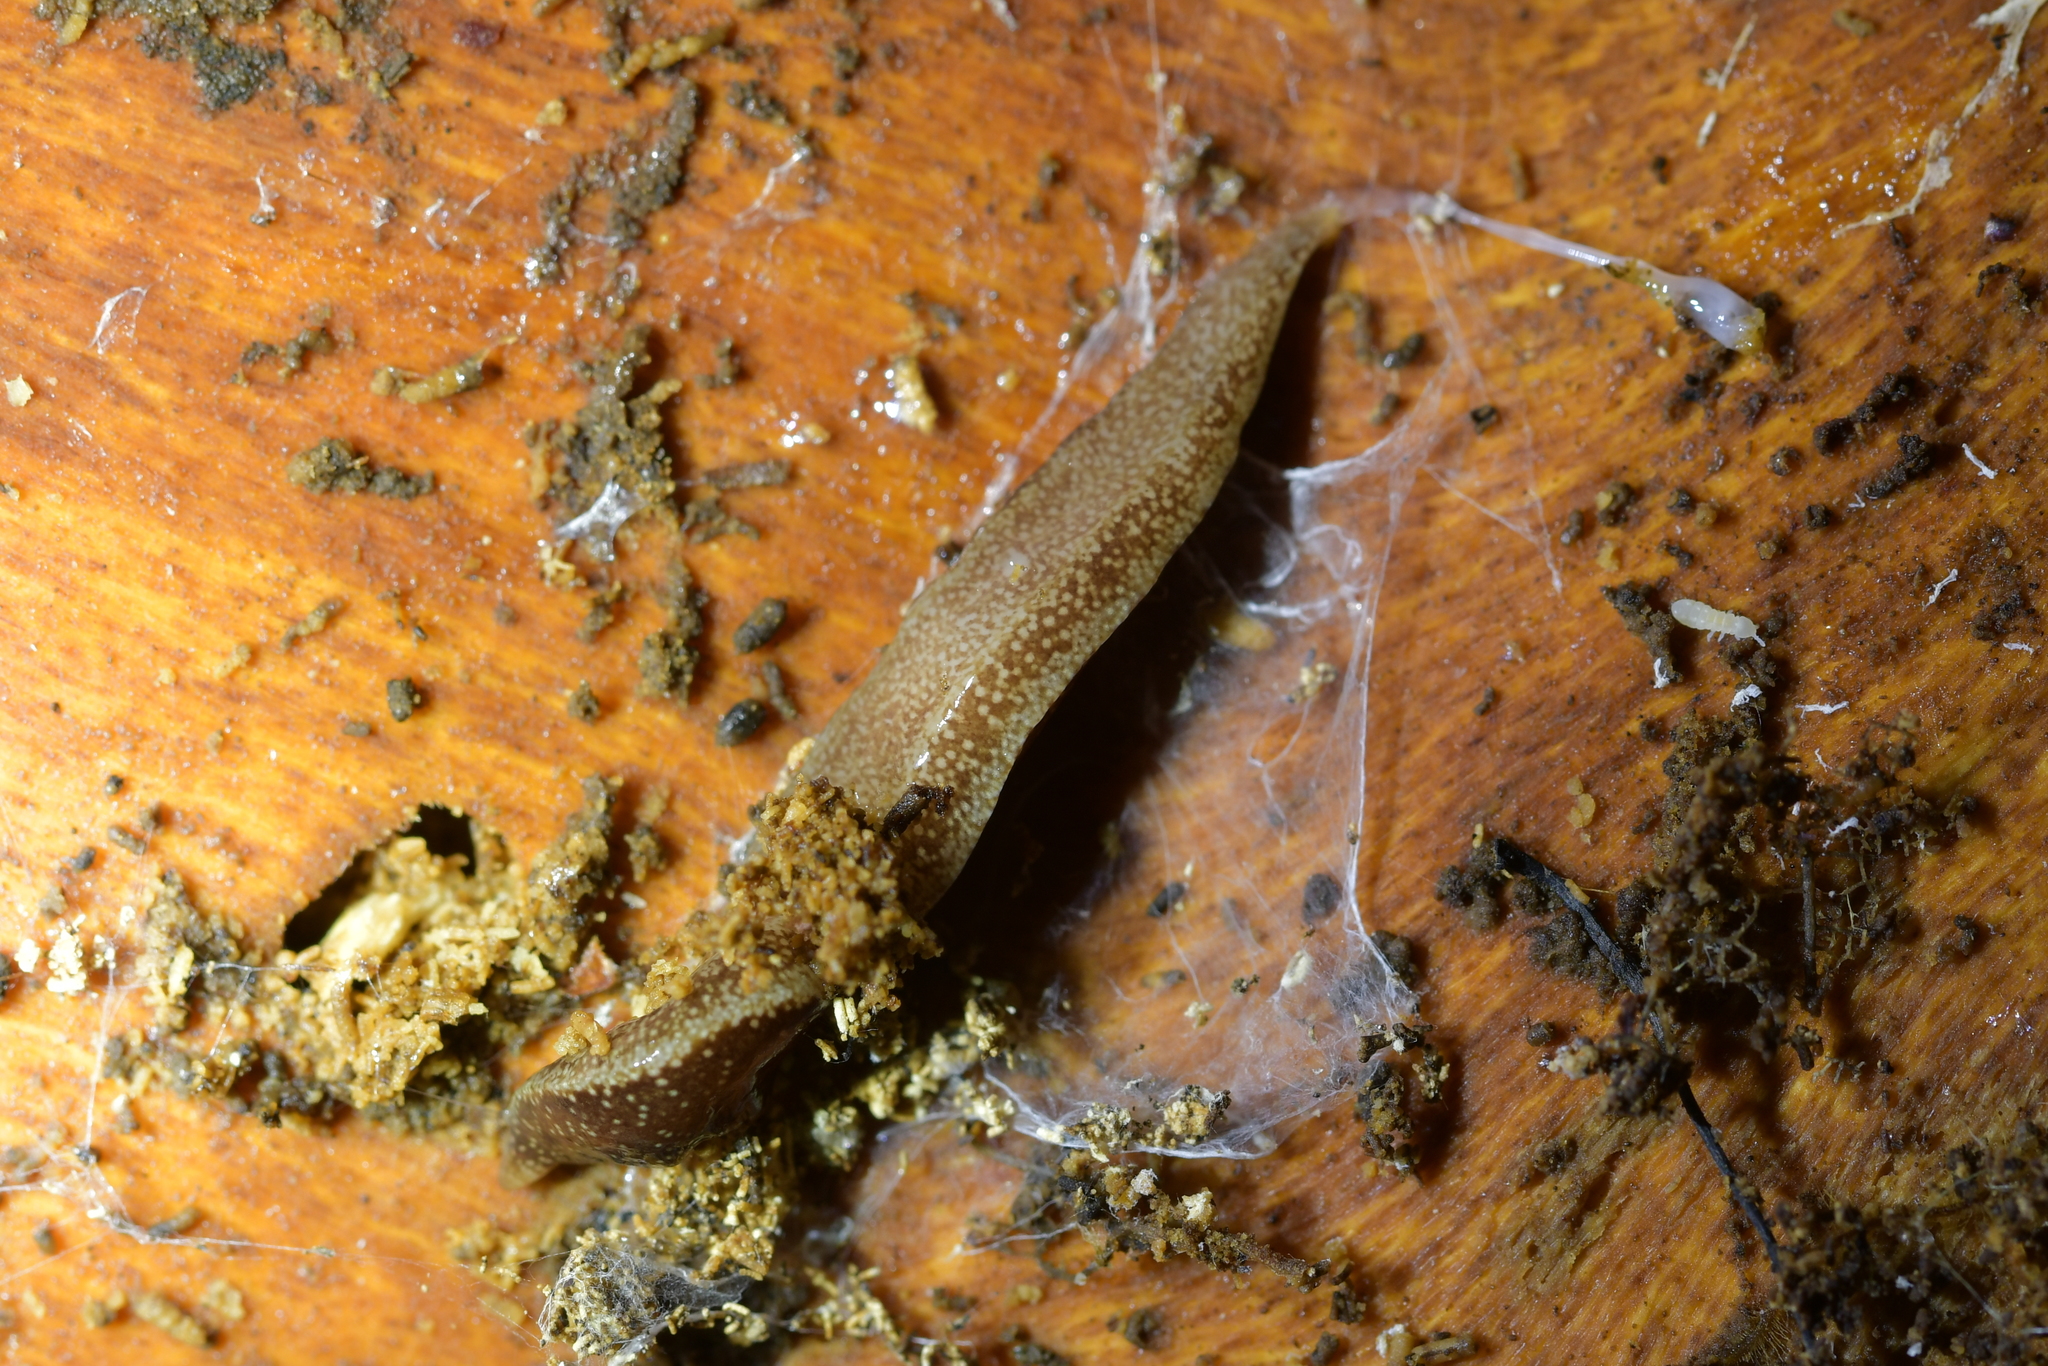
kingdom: Animalia
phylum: Platyhelminthes
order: Tricladida
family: Geoplanidae
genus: Australopacifica
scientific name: Australopacifica spectabilis
